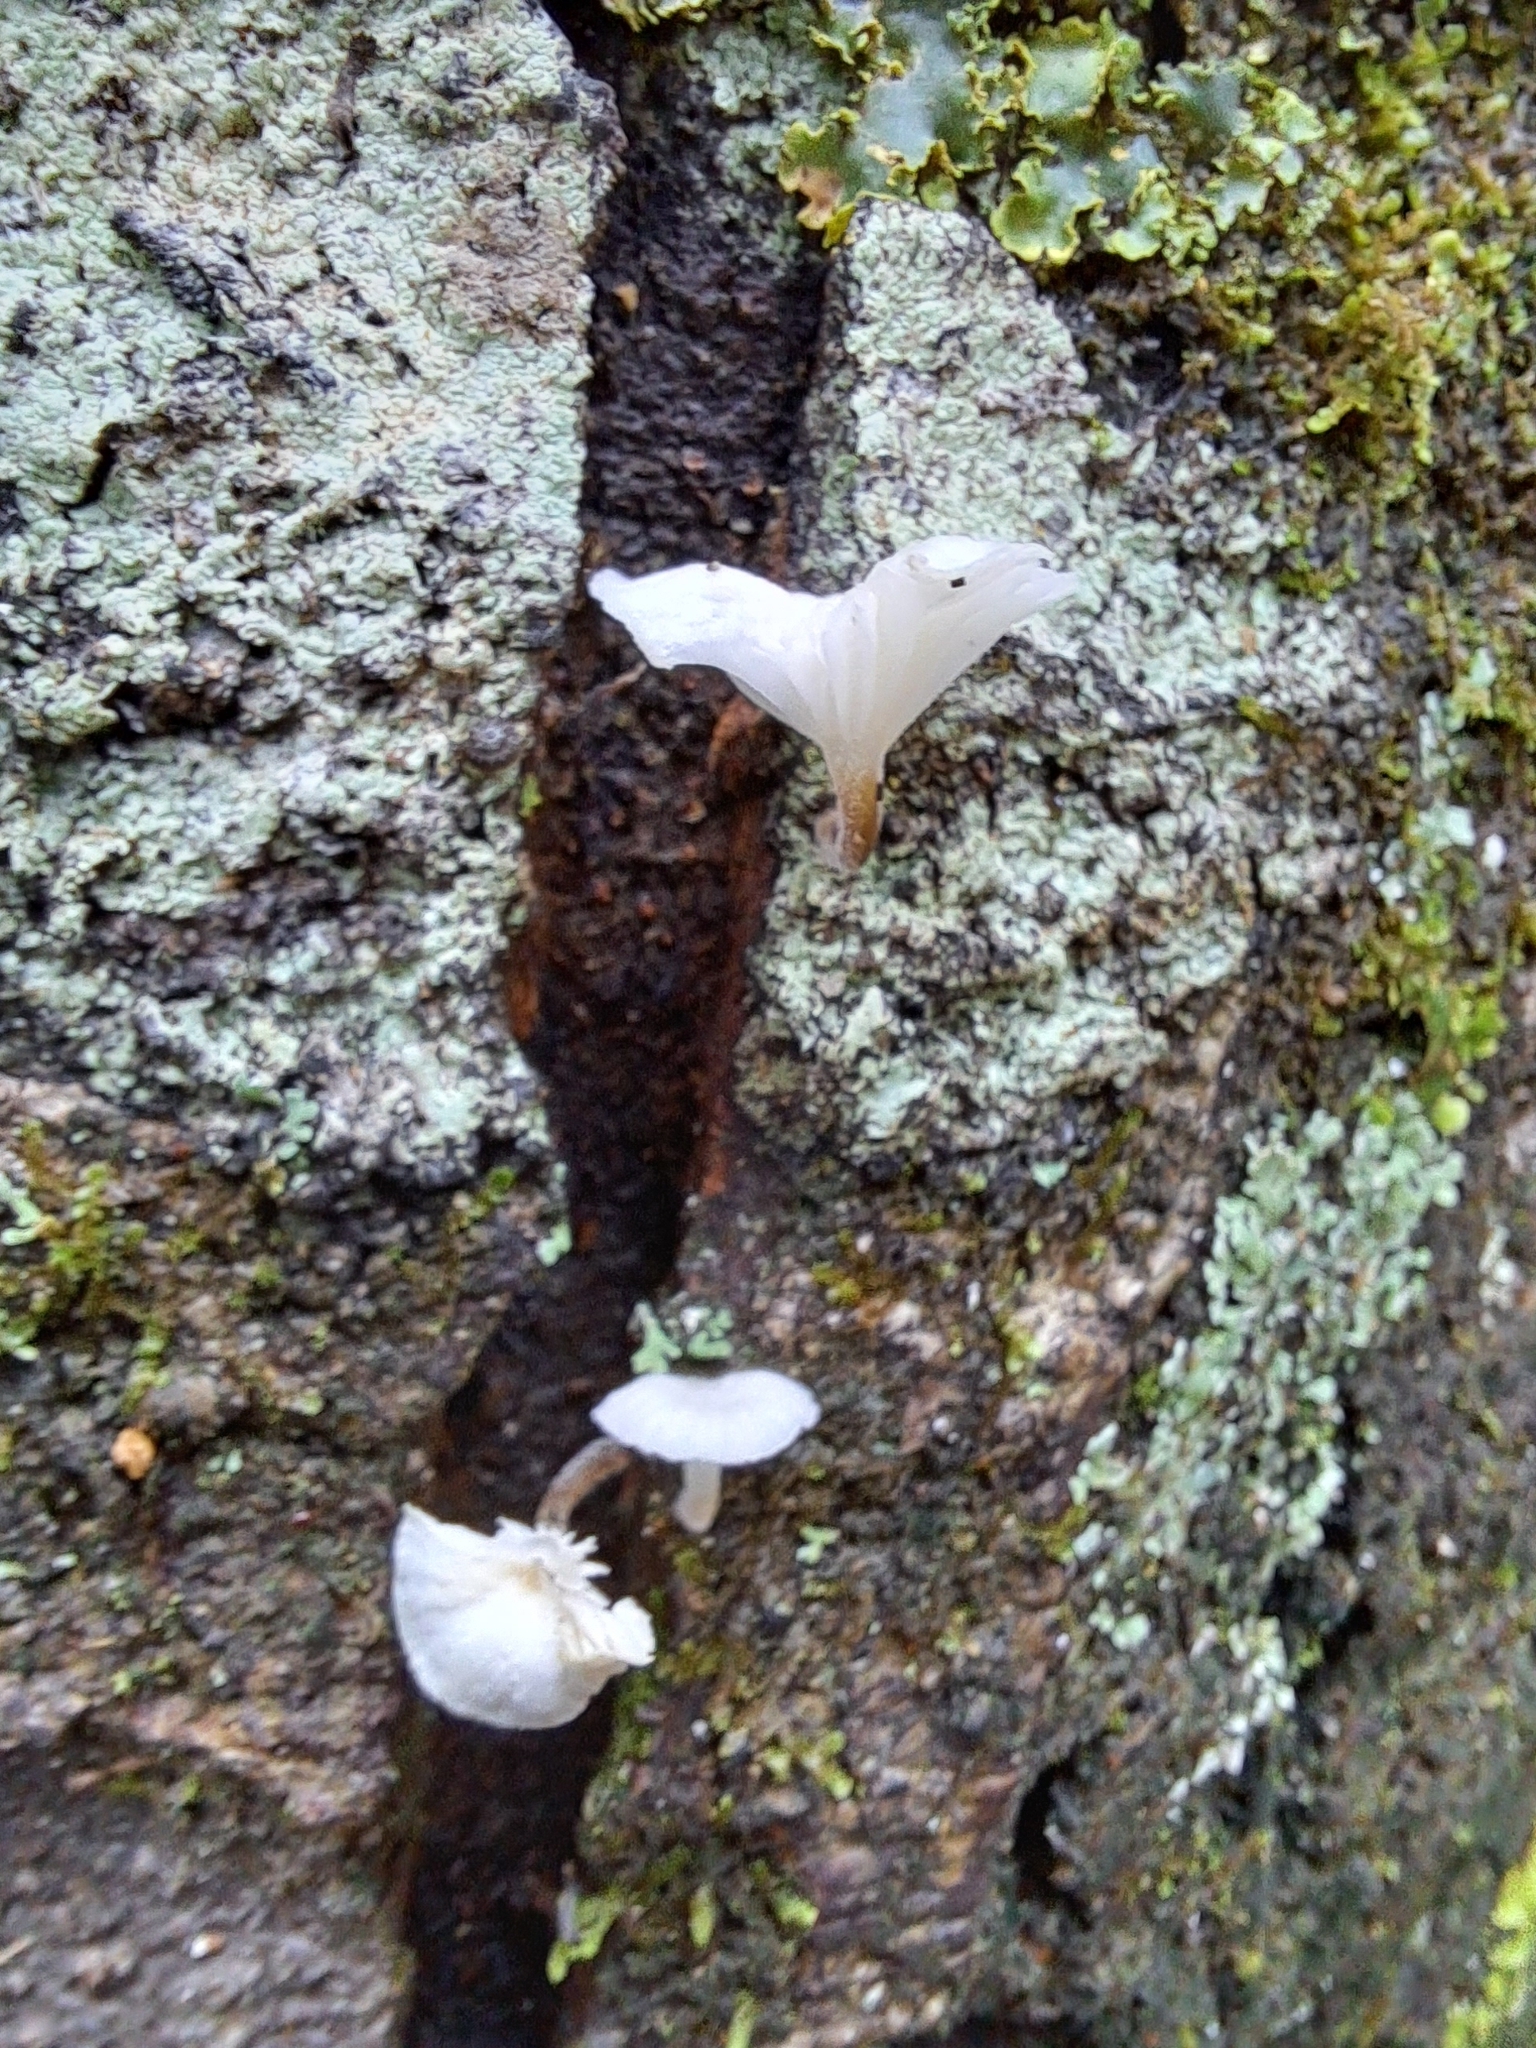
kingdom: Fungi
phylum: Basidiomycota
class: Agaricomycetes
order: Agaricales
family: Porotheleaceae
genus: Porotheleum
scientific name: Porotheleum albodescendens
